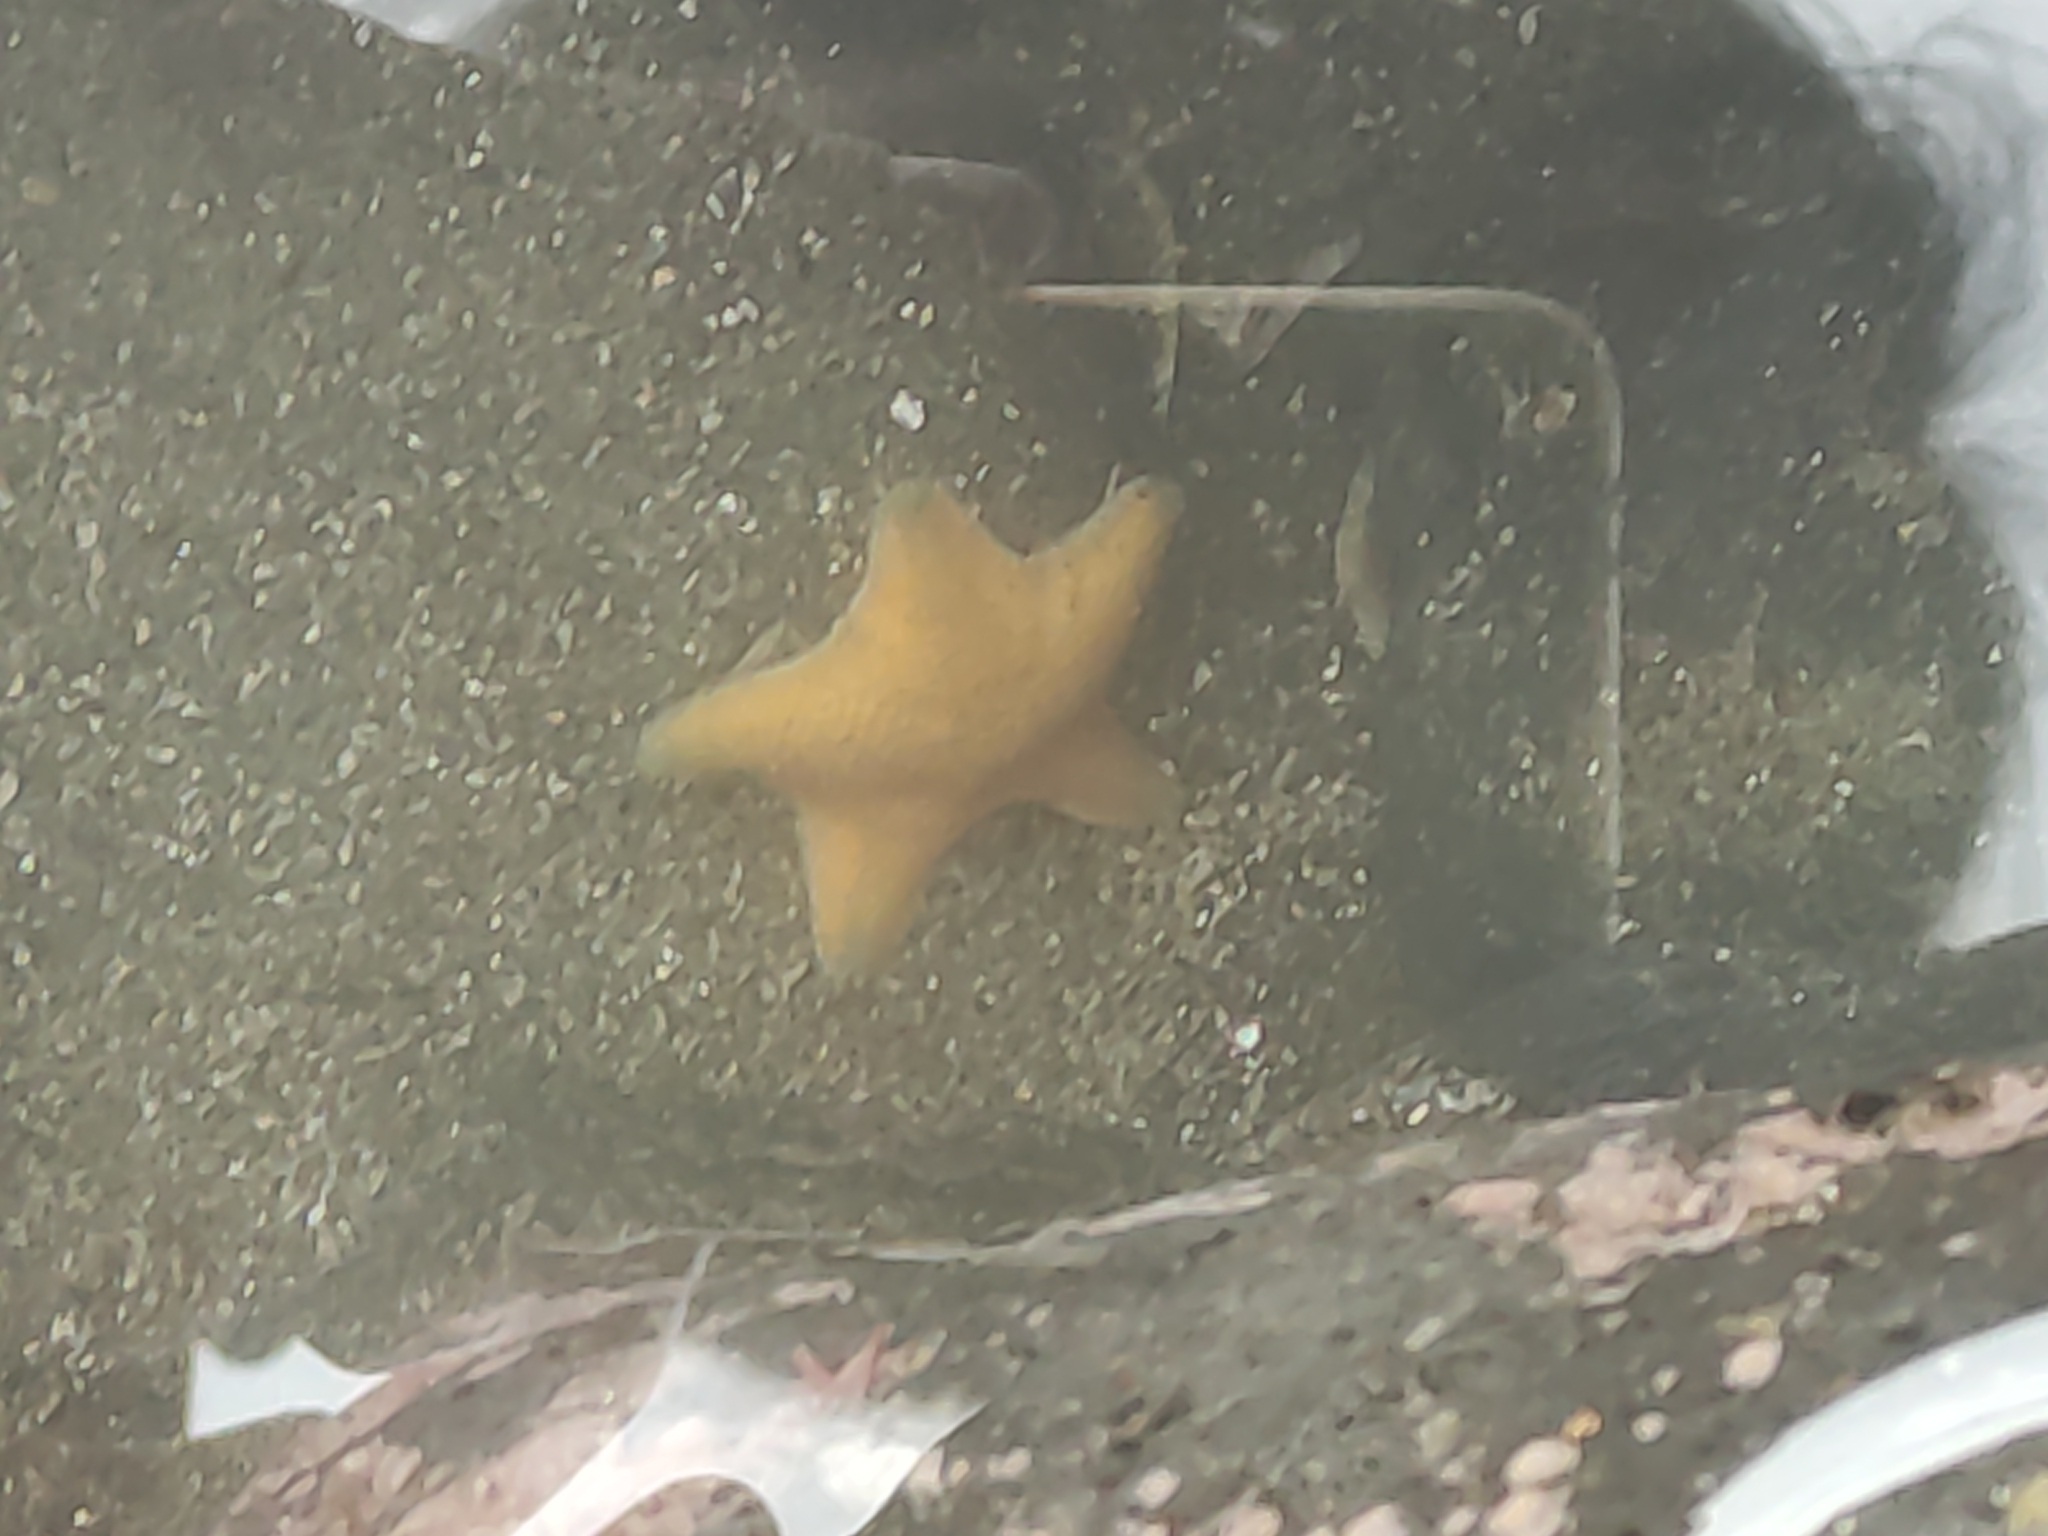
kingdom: Animalia
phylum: Echinodermata
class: Asteroidea
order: Valvatida
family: Asterinidae
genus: Patiriella
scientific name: Patiriella regularis
